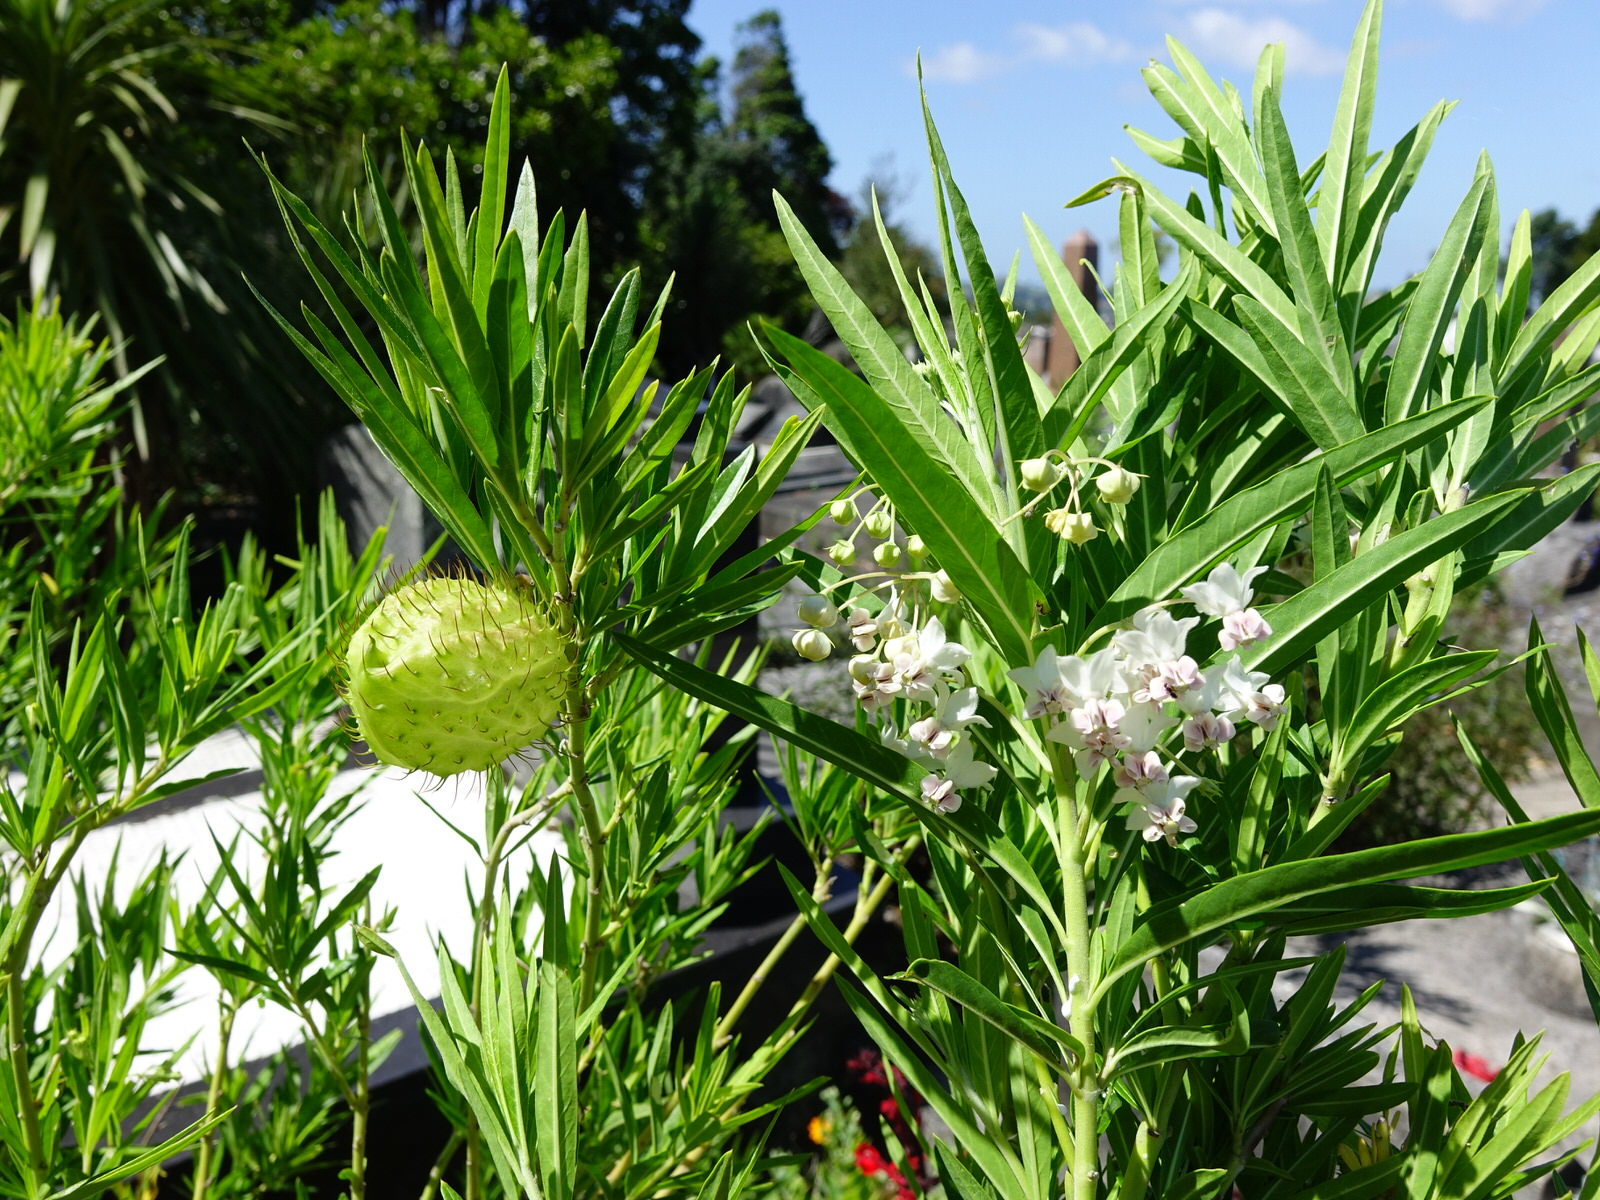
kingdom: Animalia
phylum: Arthropoda
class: Insecta
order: Lepidoptera
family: Nymphalidae
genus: Danaus
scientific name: Danaus plexippus
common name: Monarch
